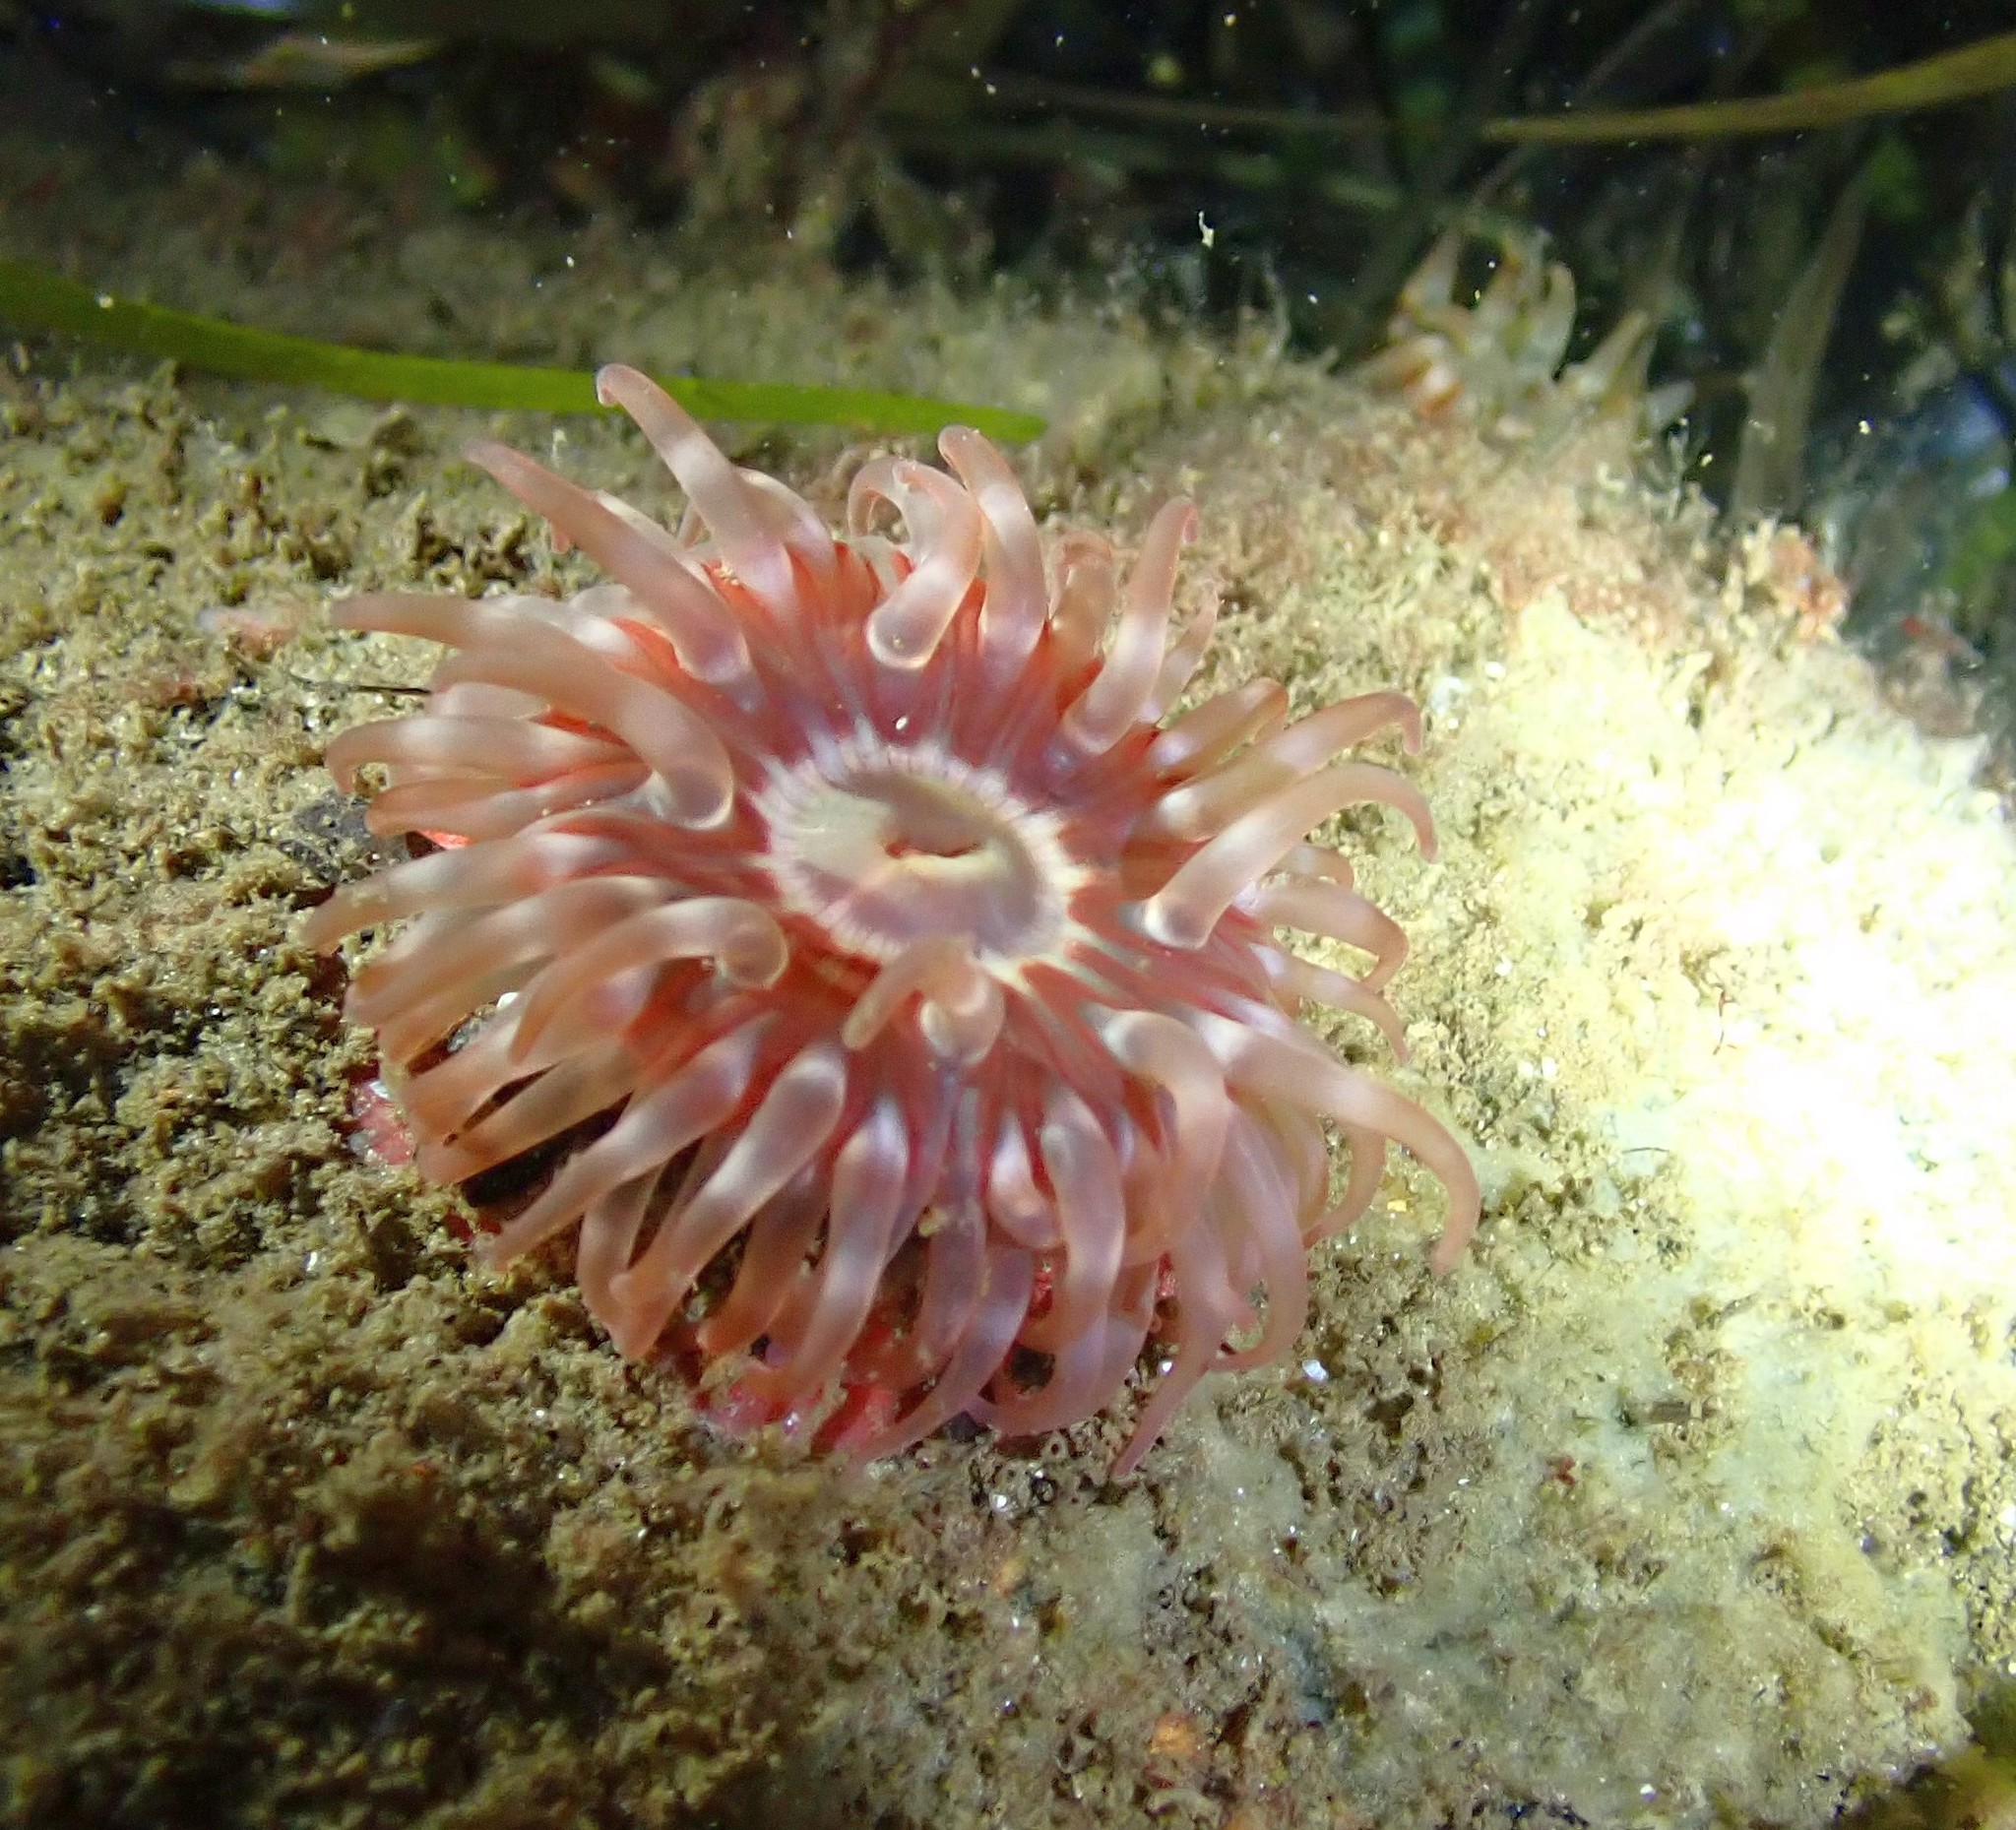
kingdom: Animalia
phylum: Cnidaria
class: Anthozoa
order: Actiniaria
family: Actiniidae
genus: Urticina
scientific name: Urticina felina
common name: Dahlia anemone
